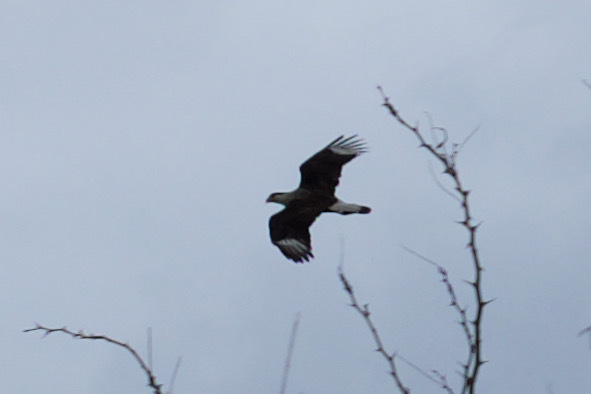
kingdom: Animalia
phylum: Chordata
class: Aves
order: Falconiformes
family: Falconidae
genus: Caracara
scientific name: Caracara plancus
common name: Southern caracara
